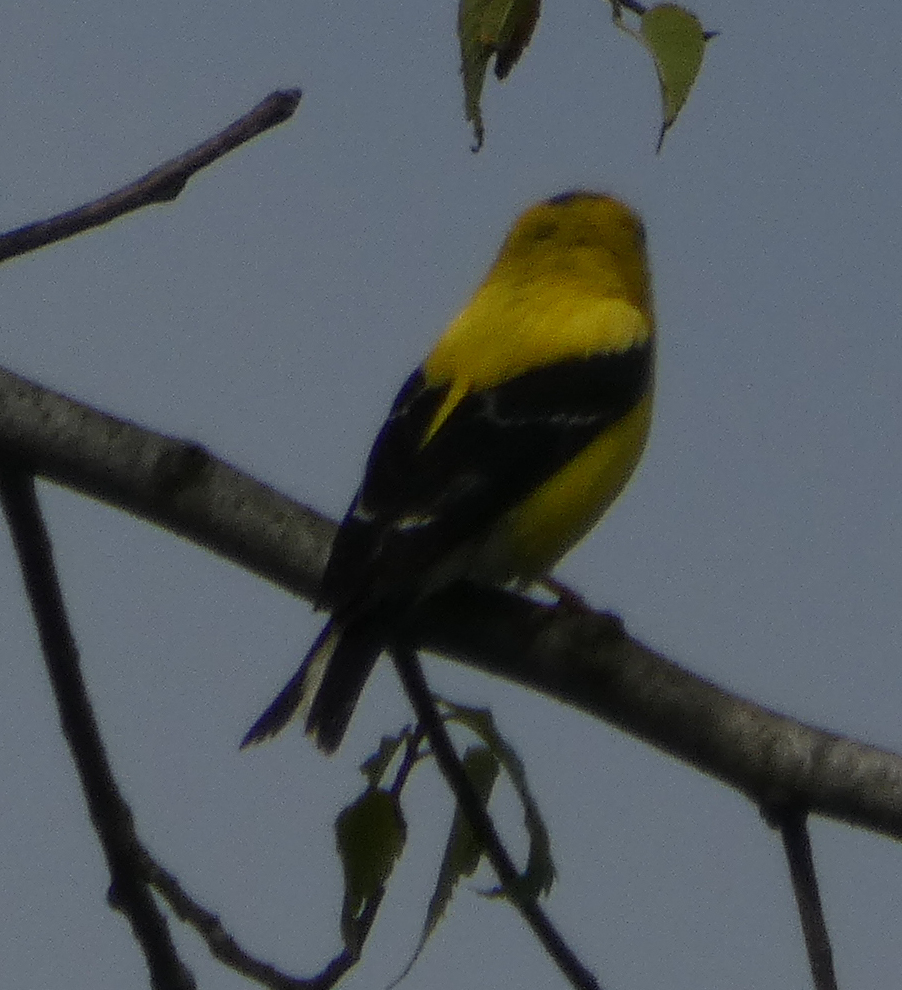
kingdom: Animalia
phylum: Chordata
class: Aves
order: Passeriformes
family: Fringillidae
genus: Spinus
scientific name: Spinus tristis
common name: American goldfinch
